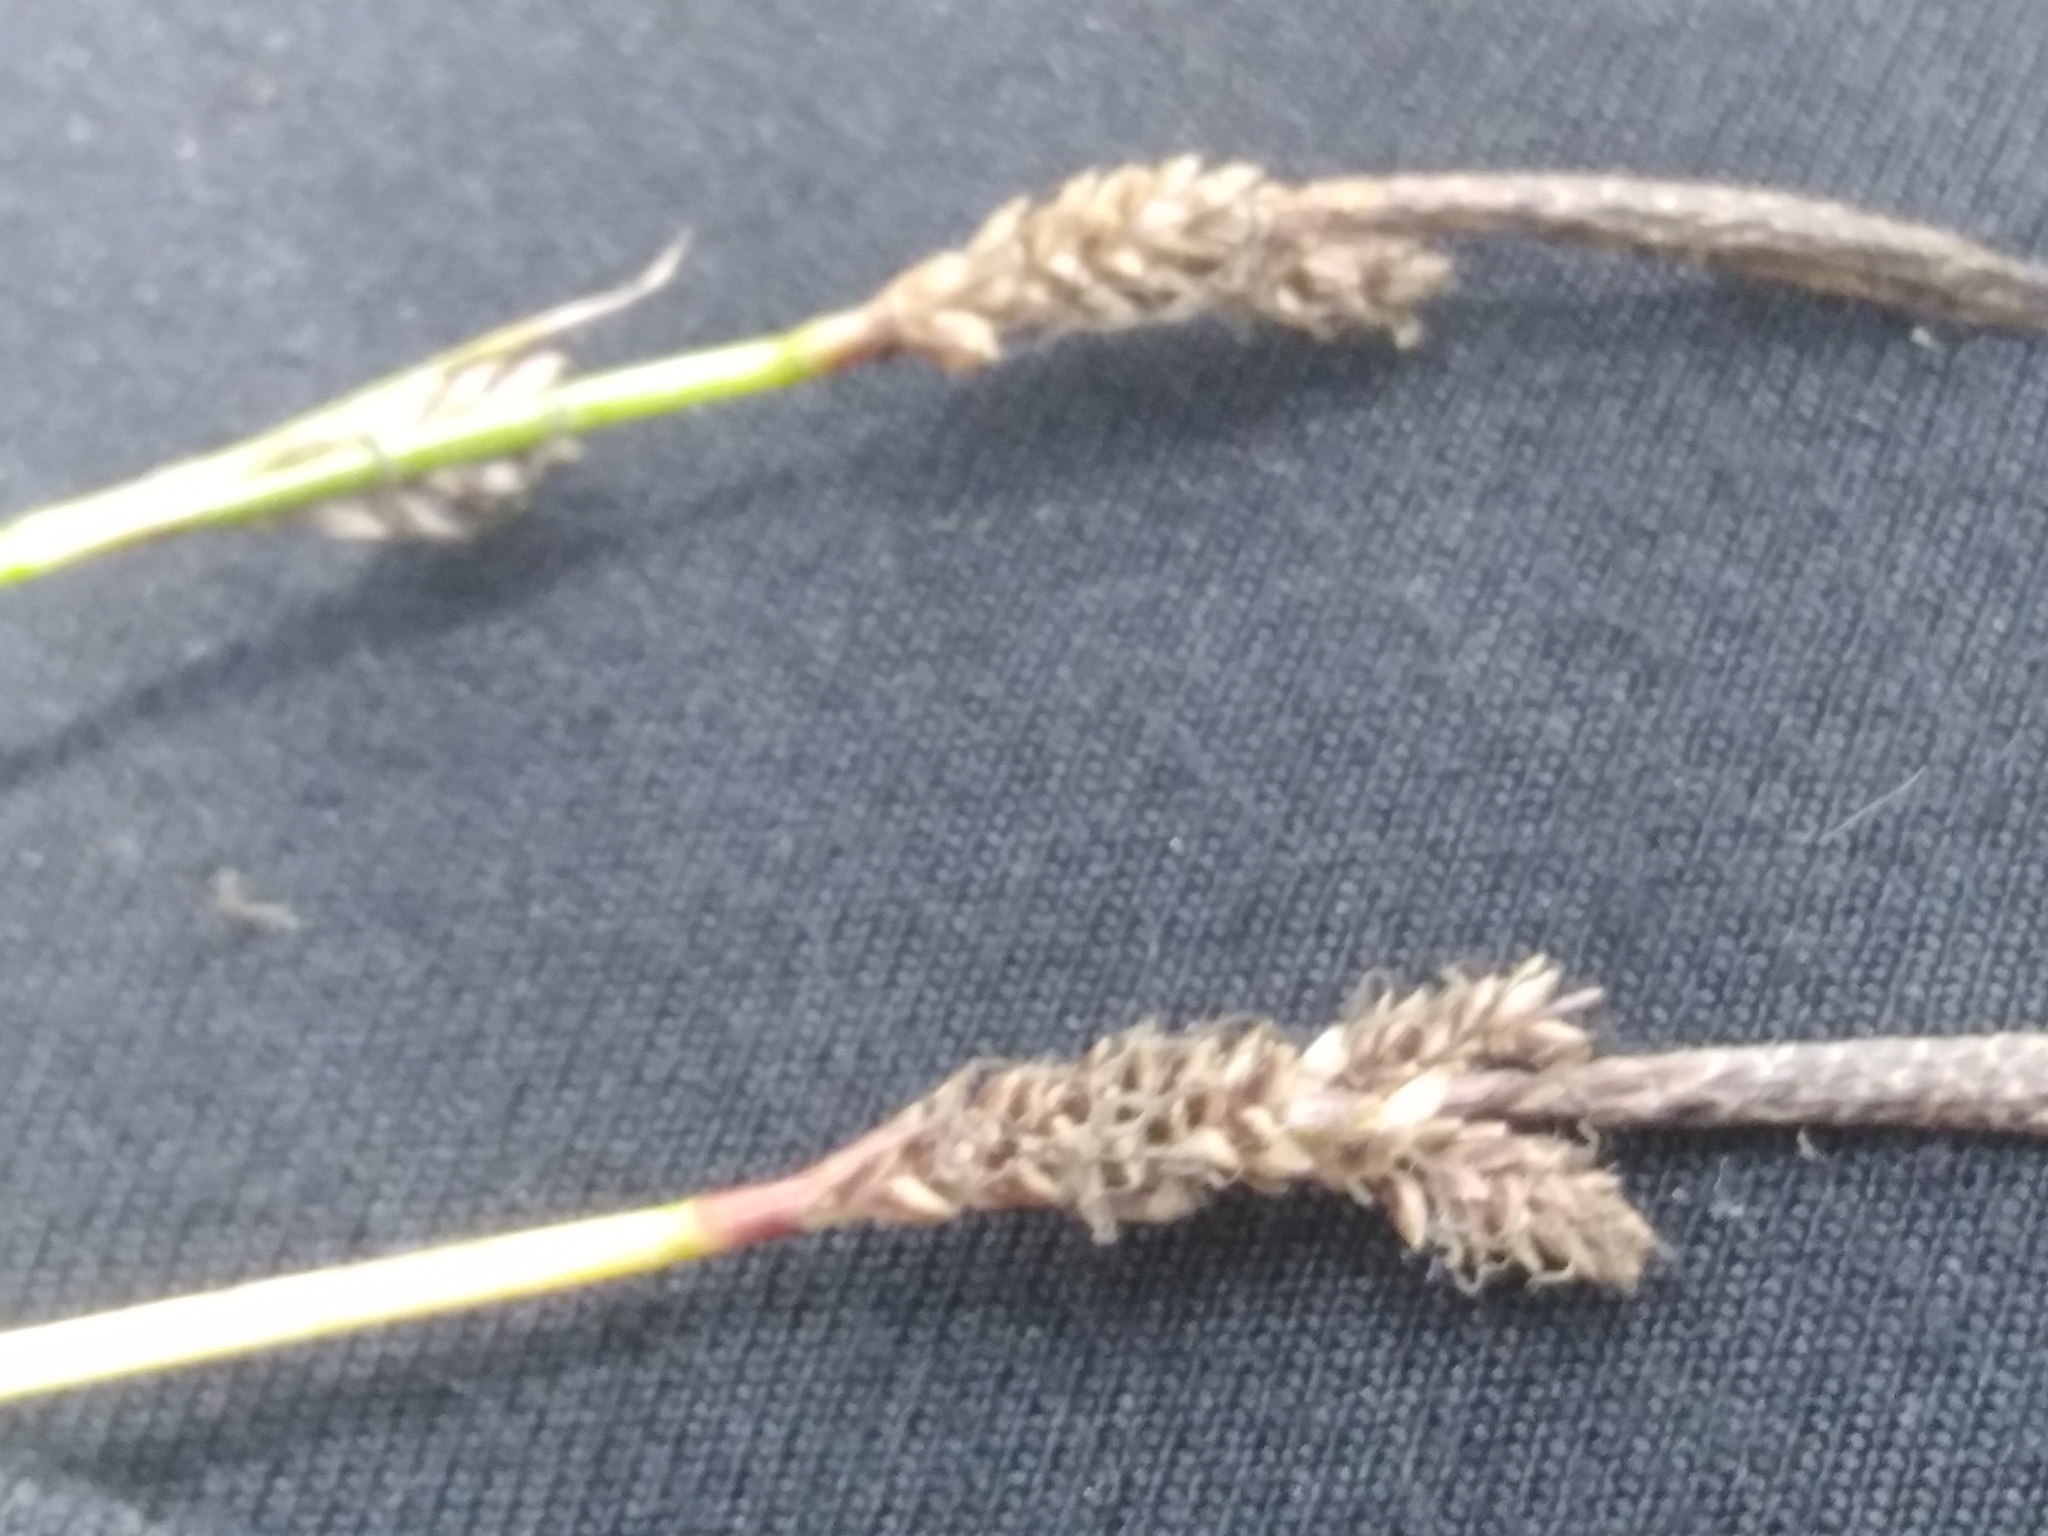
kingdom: Plantae
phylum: Tracheophyta
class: Liliopsida
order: Poales
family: Cyperaceae
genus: Carex
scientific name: Carex ericetorum
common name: Rare spring-sedge
